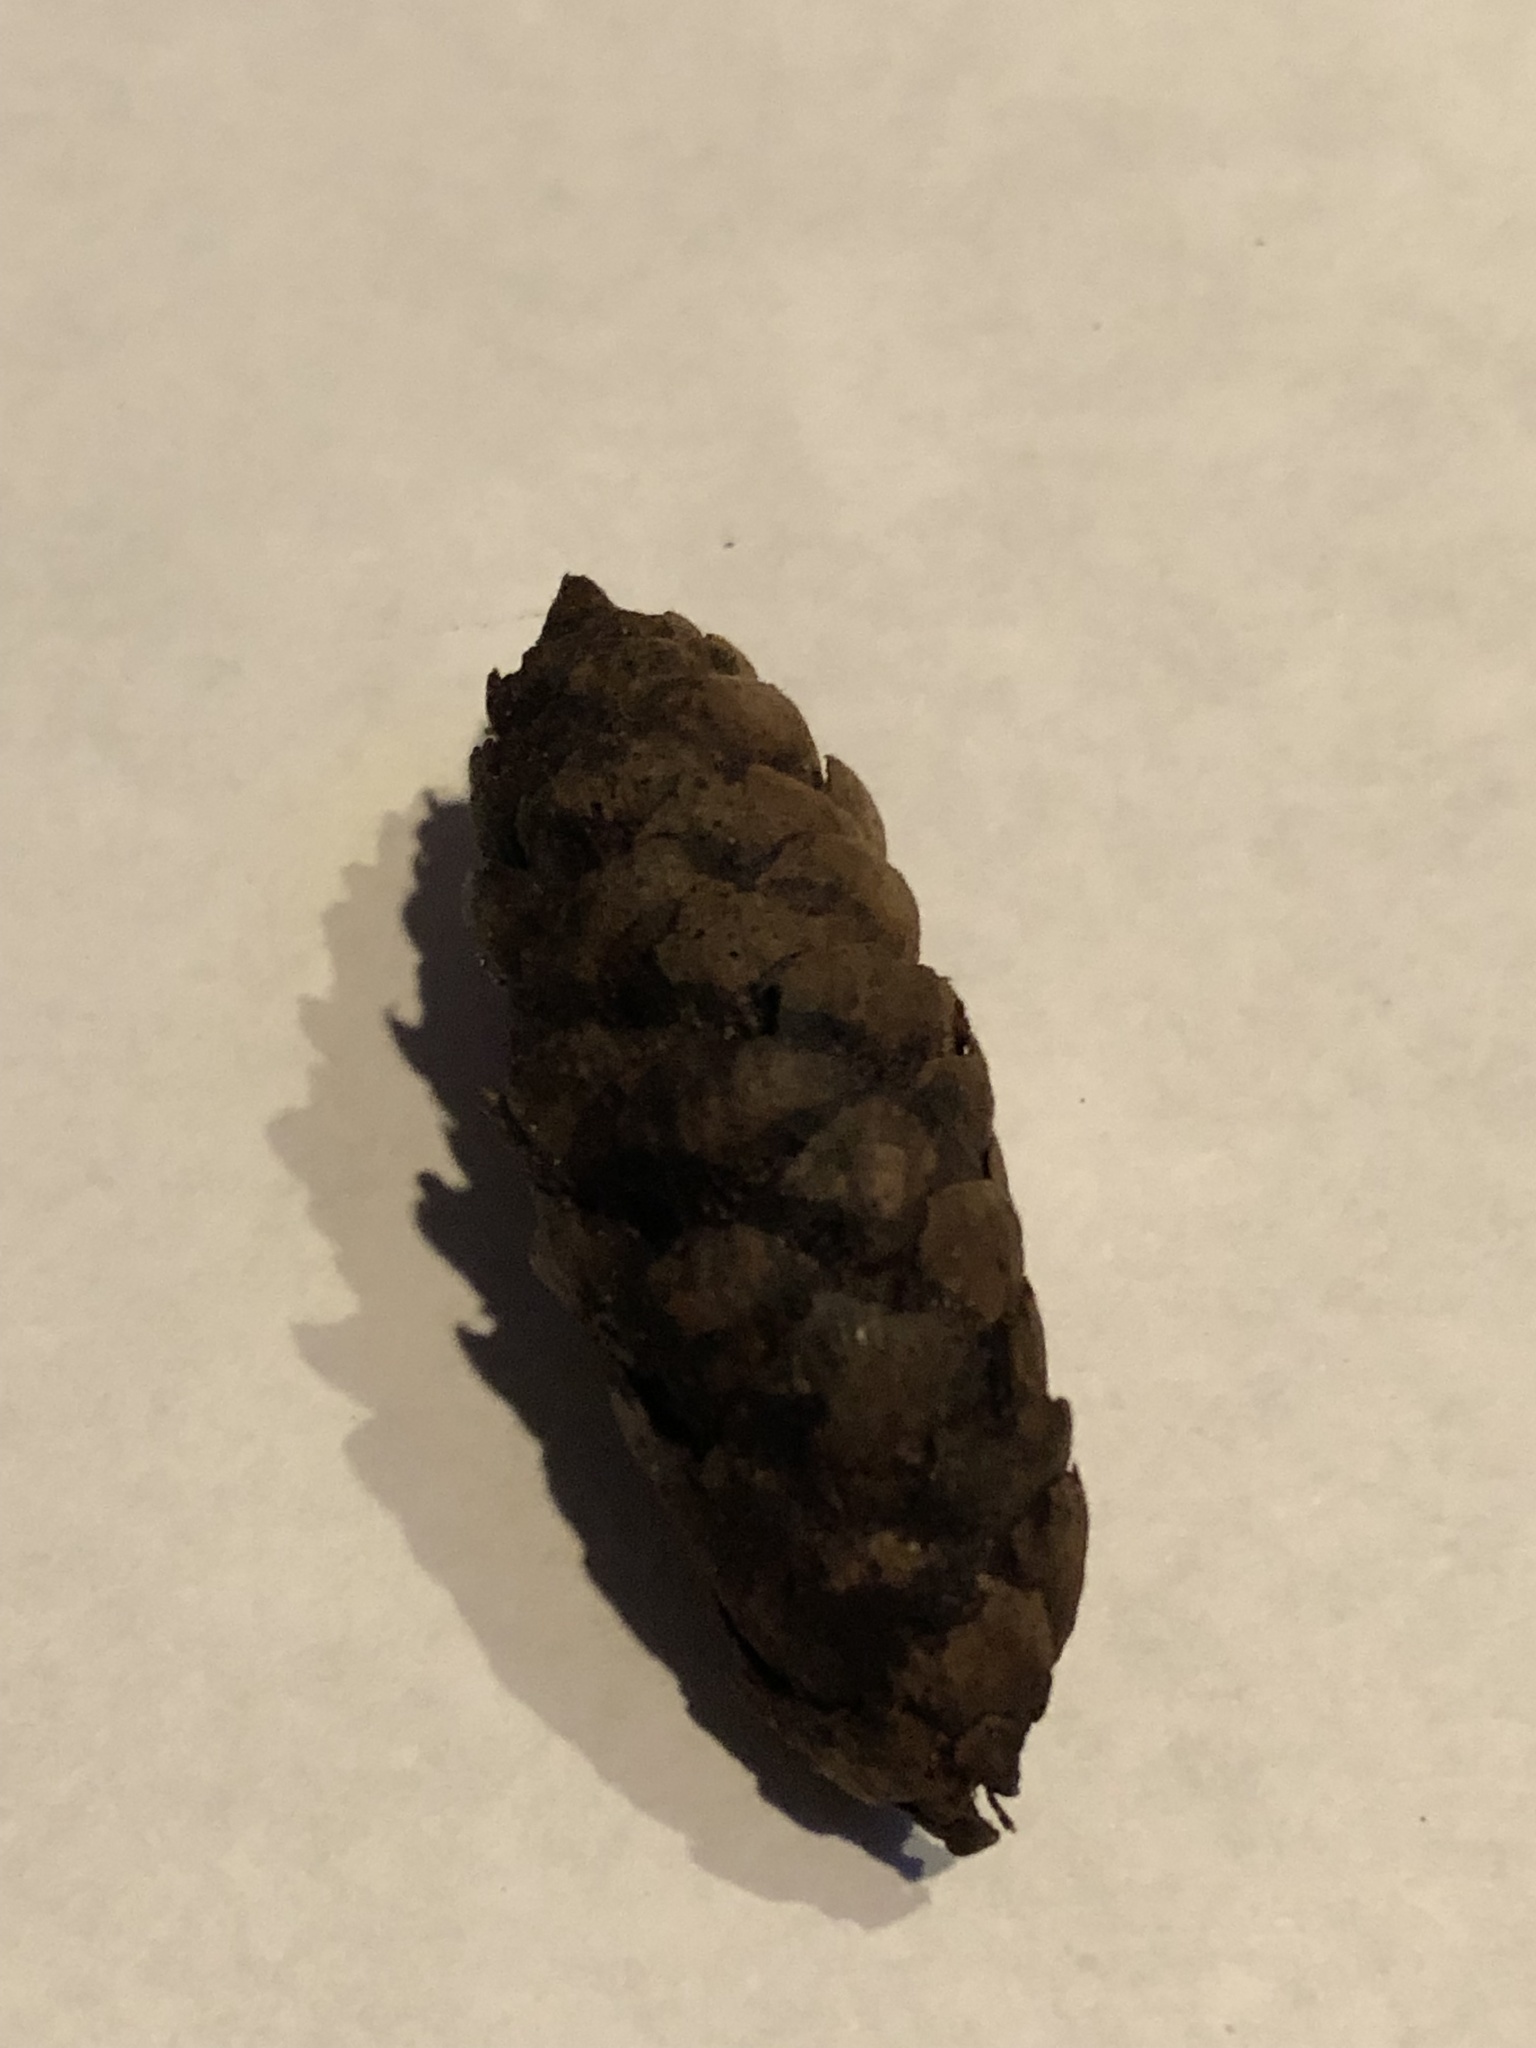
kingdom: Plantae
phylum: Tracheophyta
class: Pinopsida
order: Pinales
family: Pinaceae
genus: Picea
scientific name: Picea glauca
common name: White spruce
